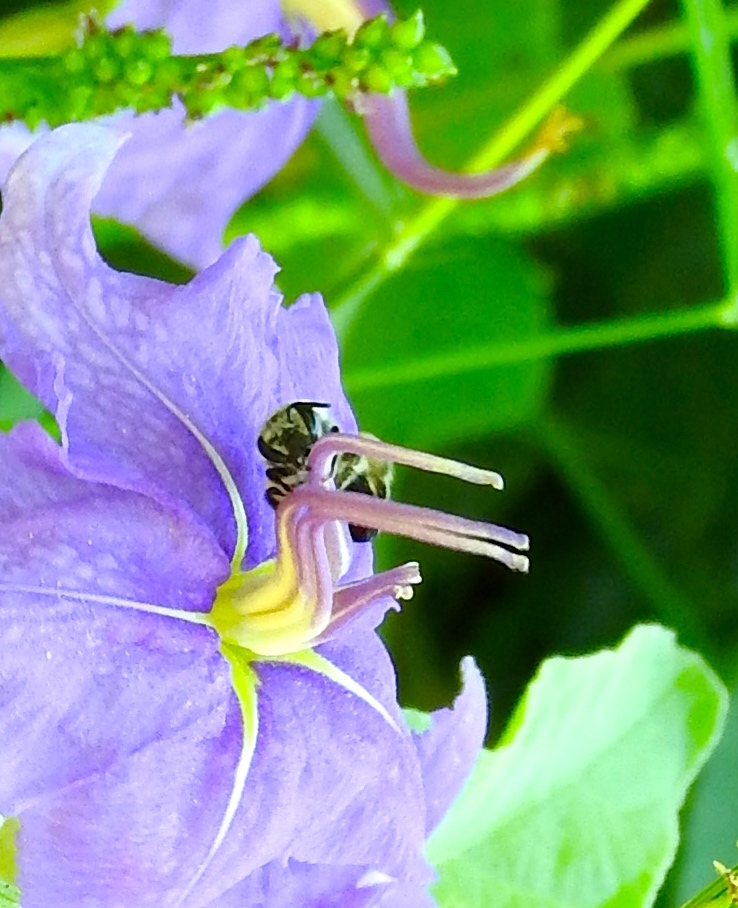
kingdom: Animalia
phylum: Arthropoda
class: Insecta
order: Hymenoptera
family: Colletidae
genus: Colletes
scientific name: Colletes
